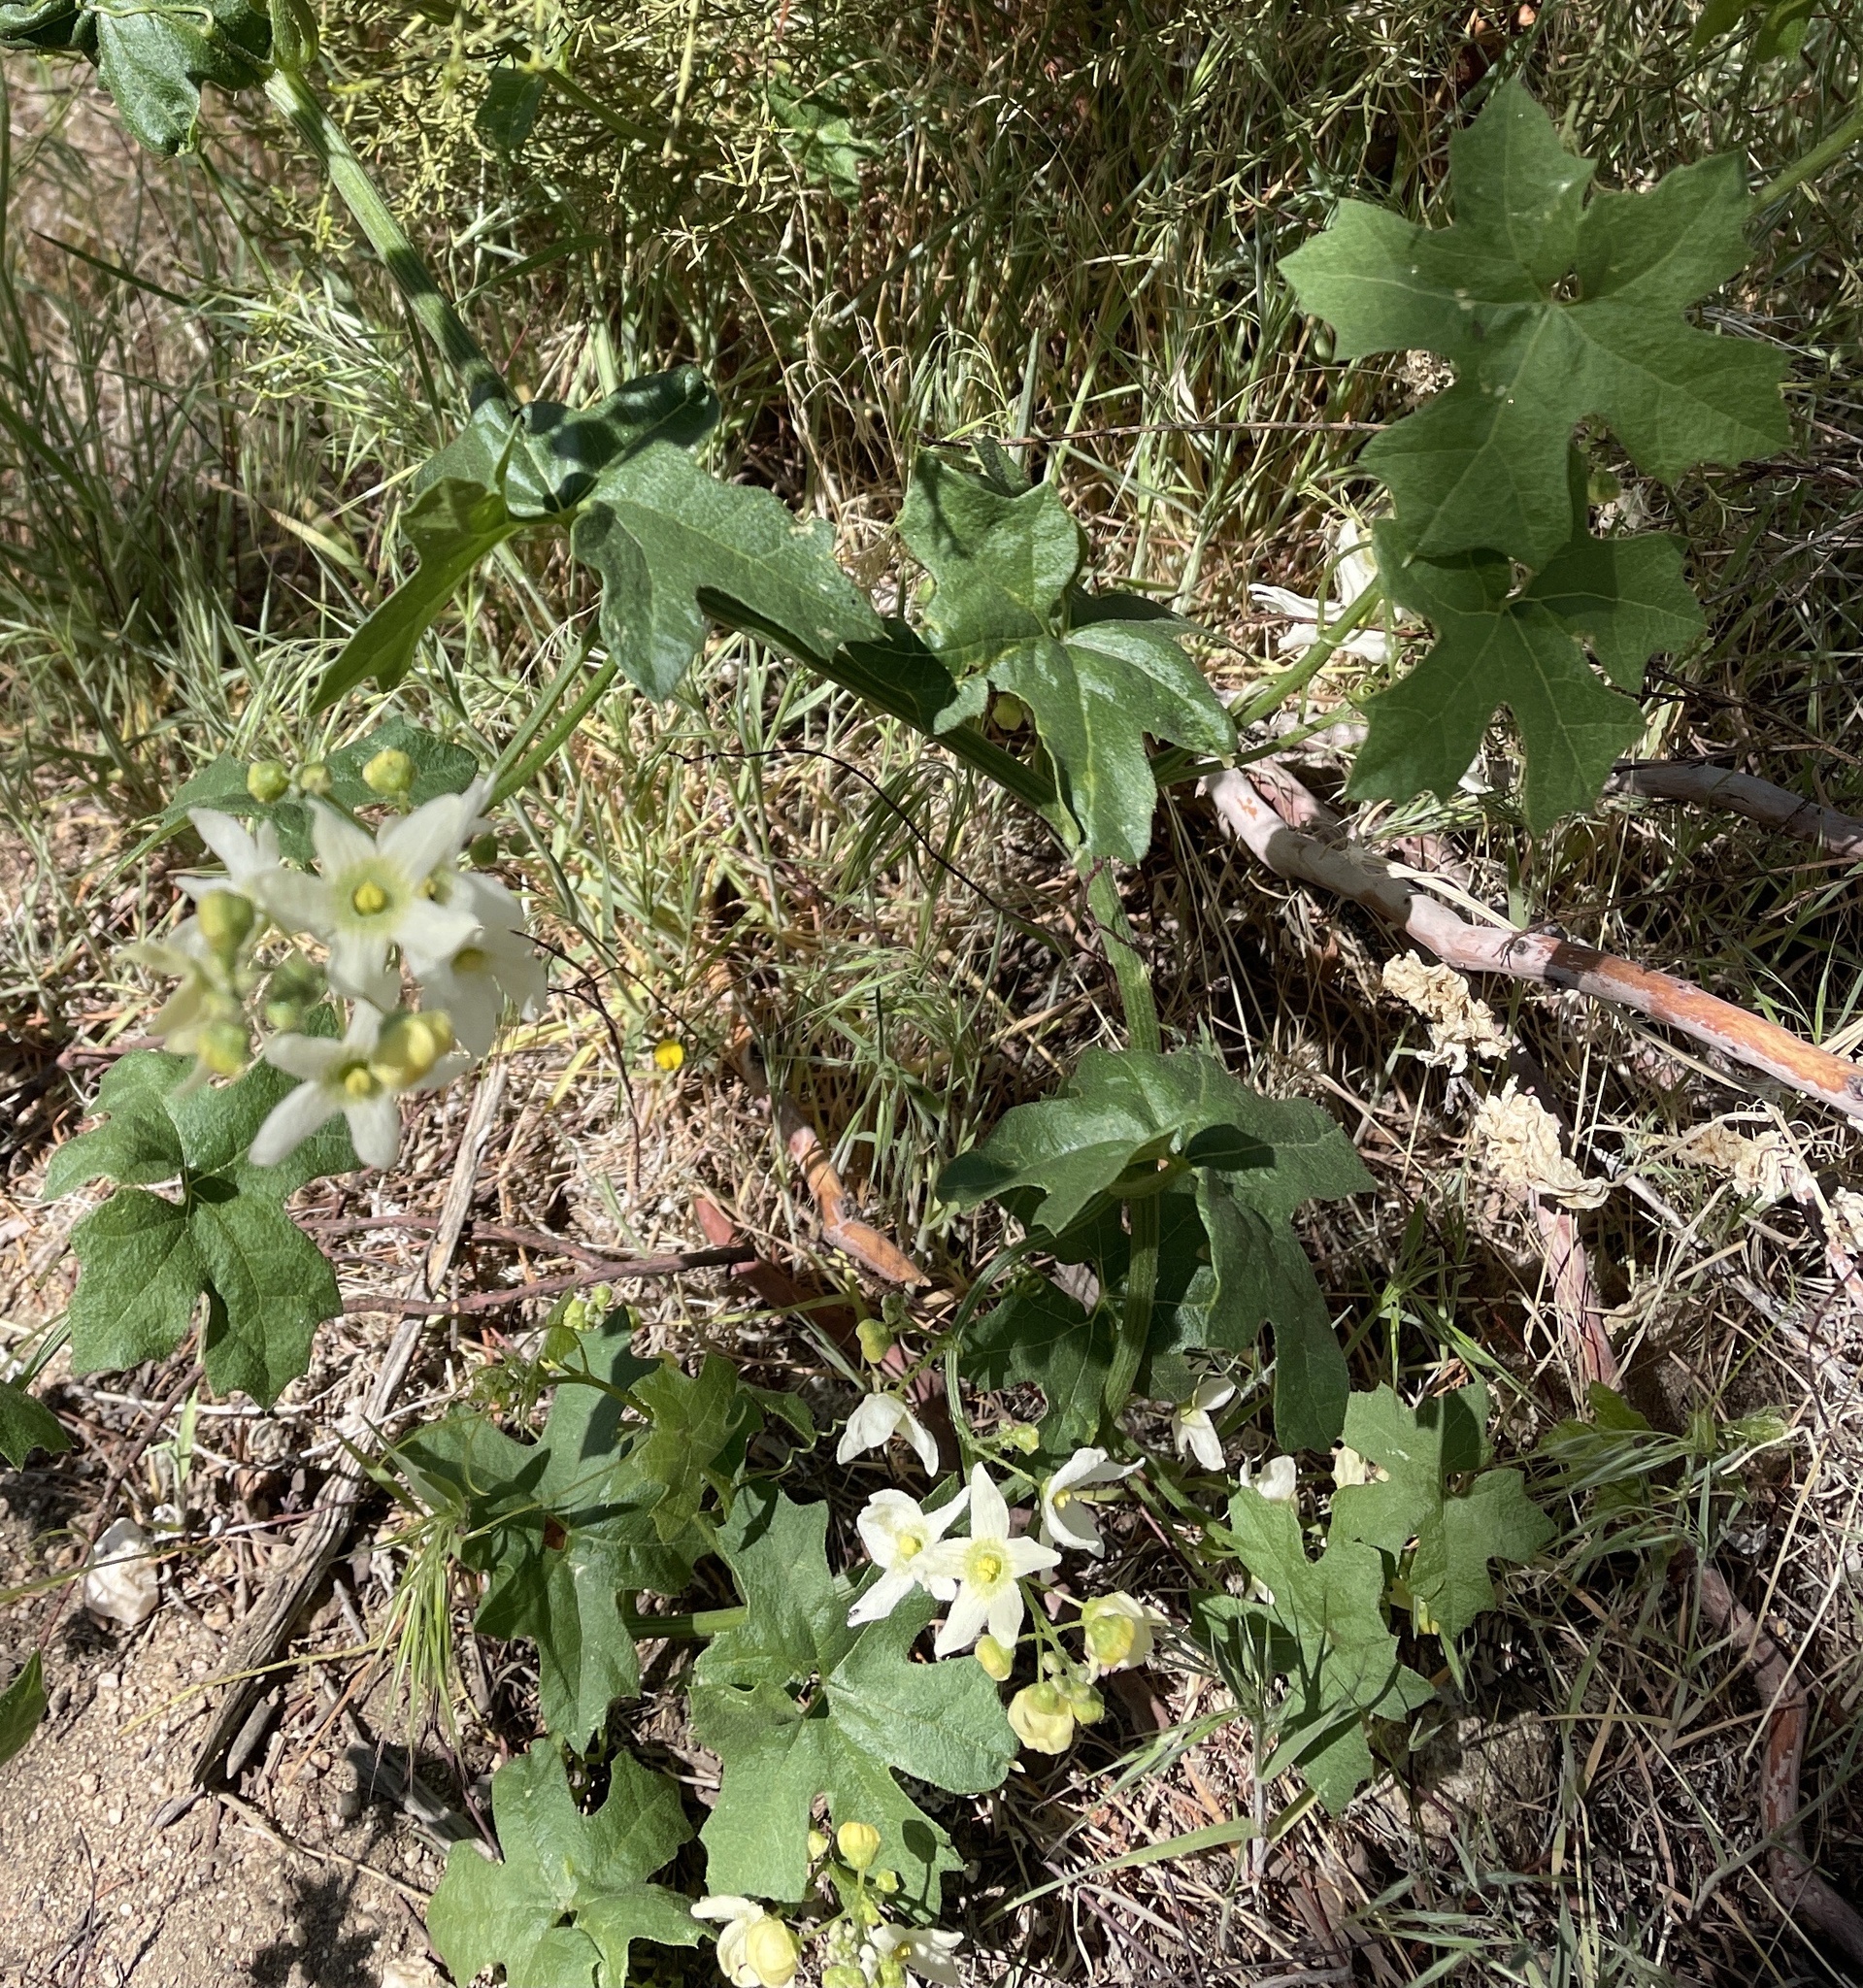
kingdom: Animalia
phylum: Arthropoda
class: Insecta
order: Coleoptera
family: Meloidae
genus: Lytta
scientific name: Lytta stygica
